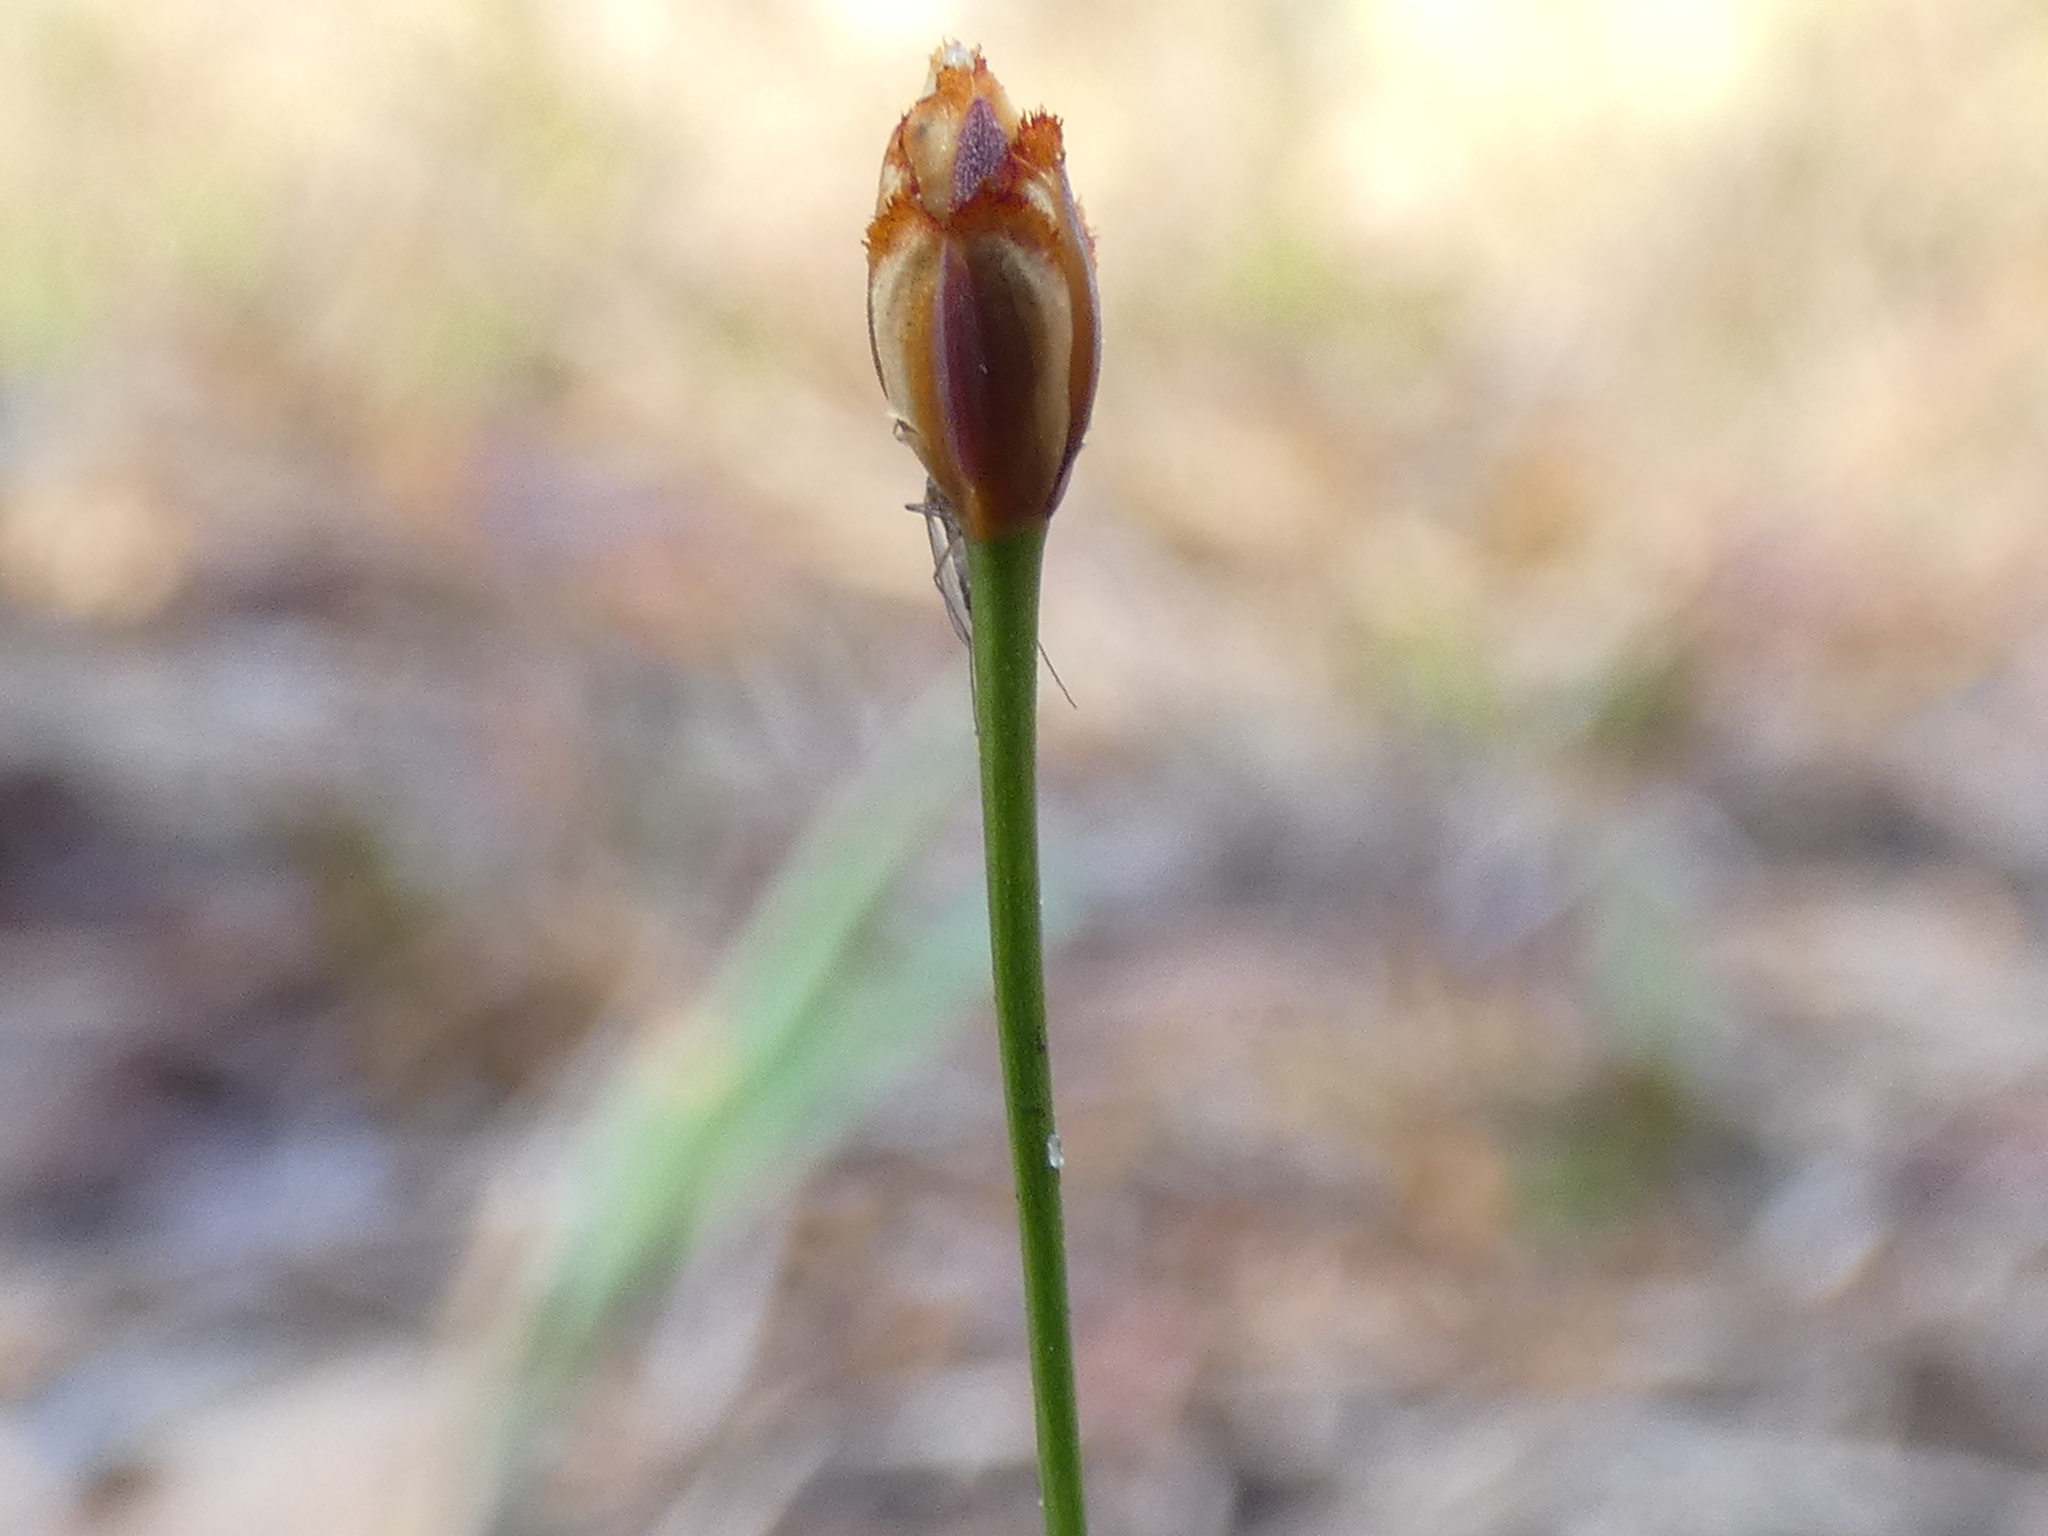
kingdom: Plantae
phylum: Tracheophyta
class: Liliopsida
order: Poales
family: Xyridaceae
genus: Xyris
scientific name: Xyris brevifolia
